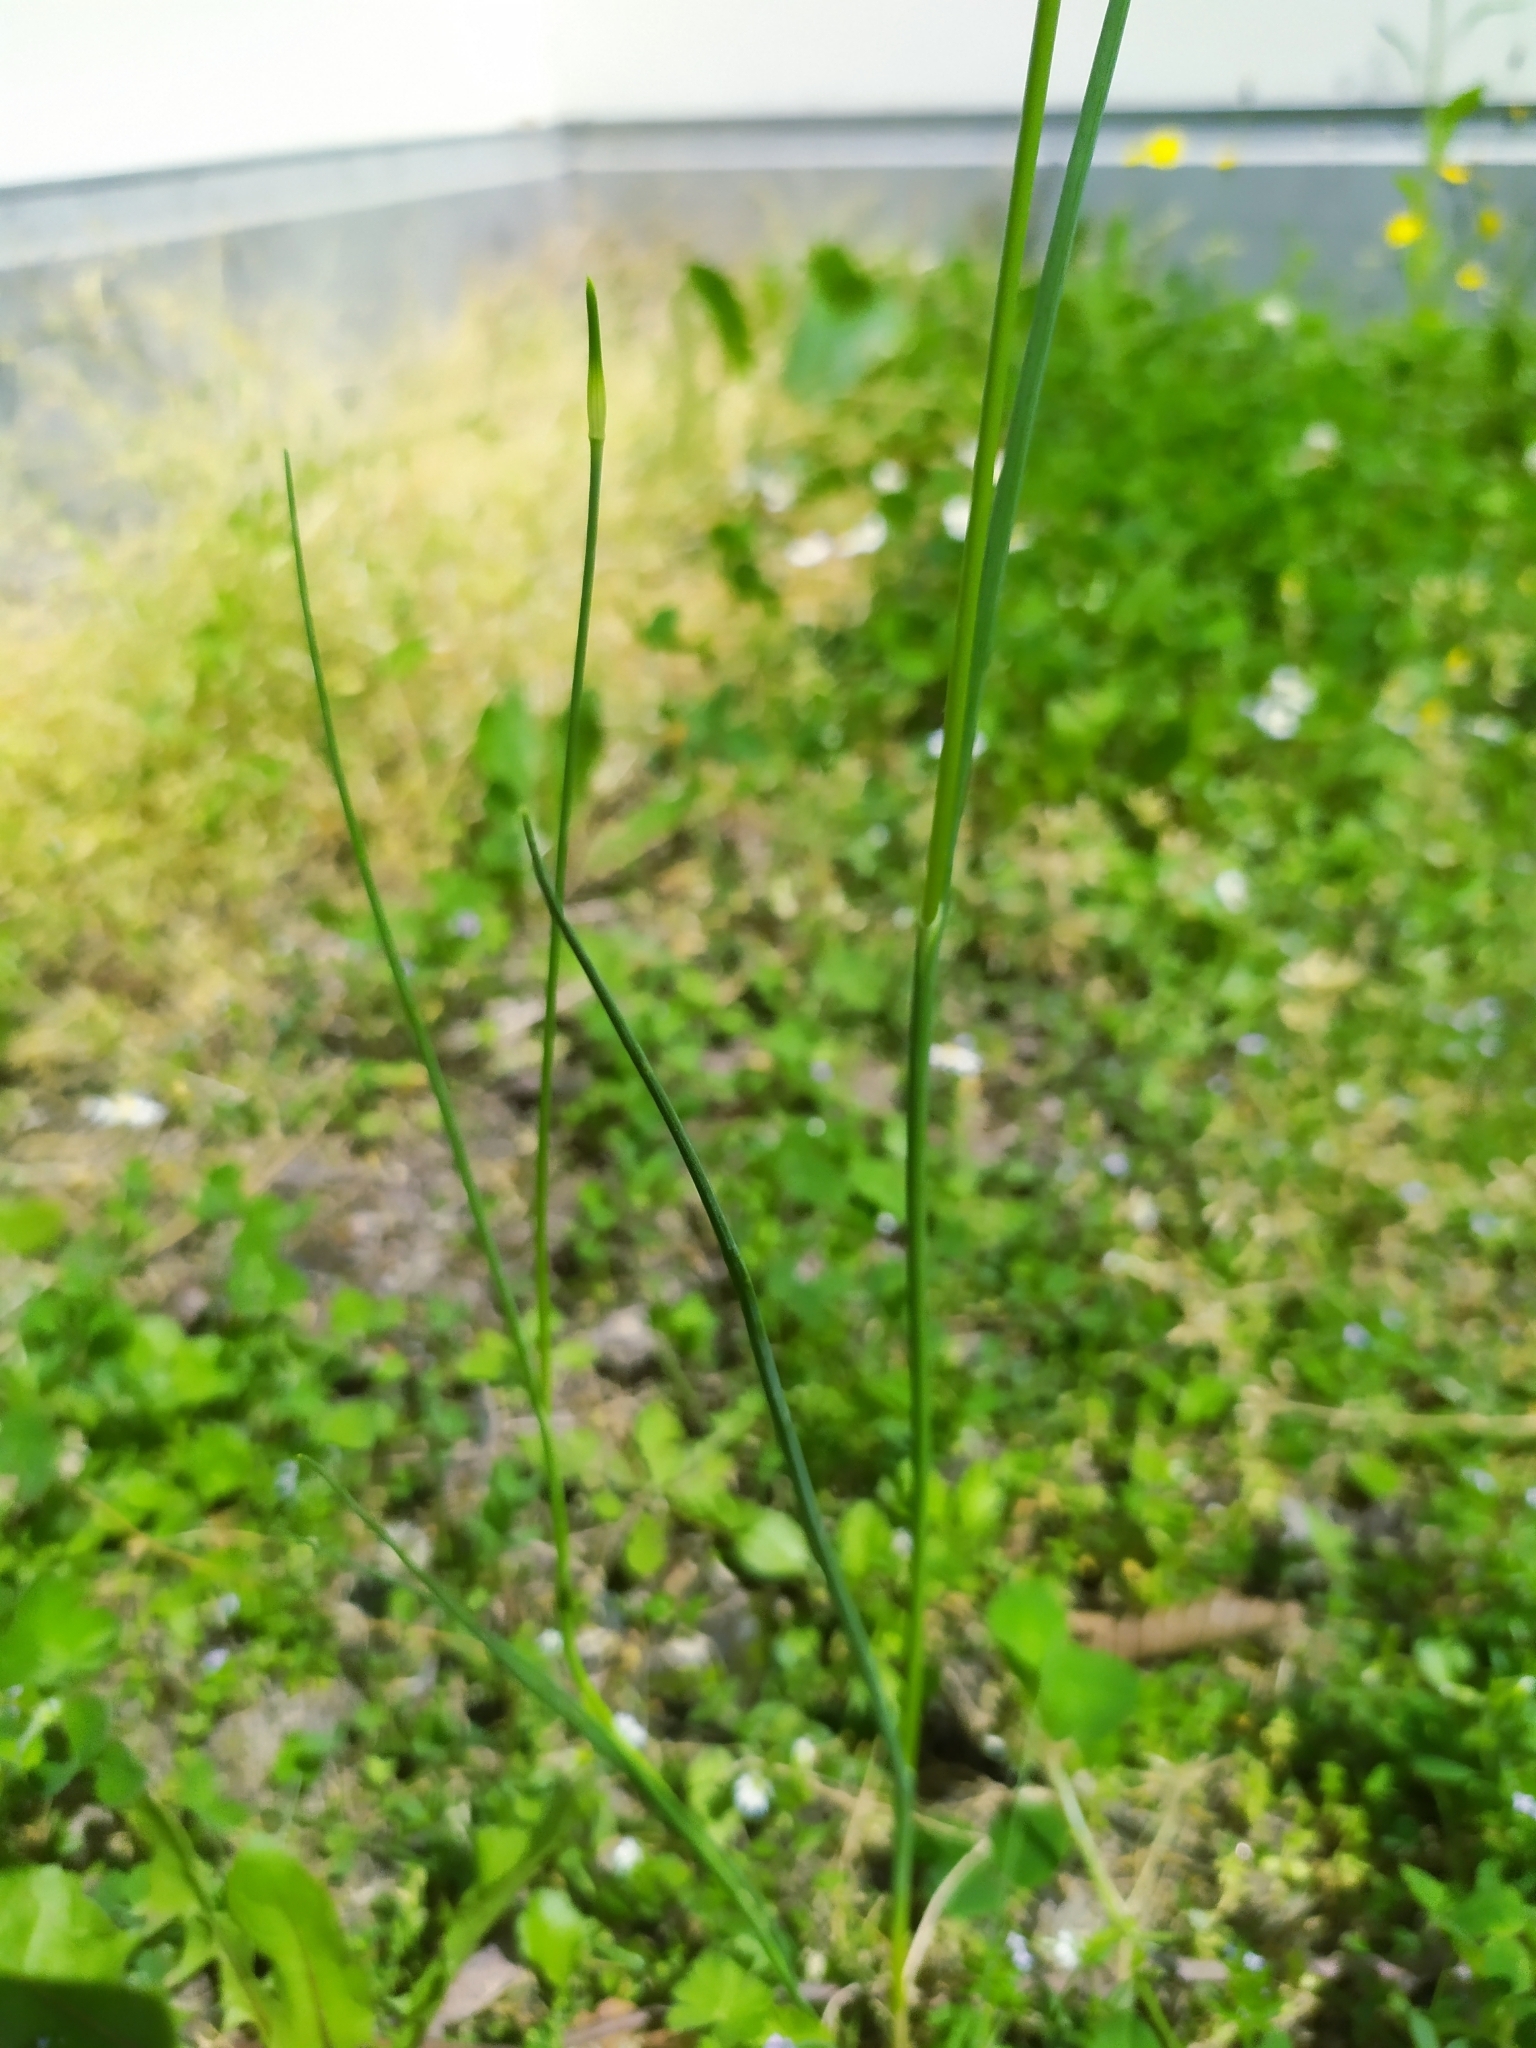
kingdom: Plantae
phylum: Tracheophyta
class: Liliopsida
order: Asparagales
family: Amaryllidaceae
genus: Allium
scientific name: Allium vineale
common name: Crow garlic
